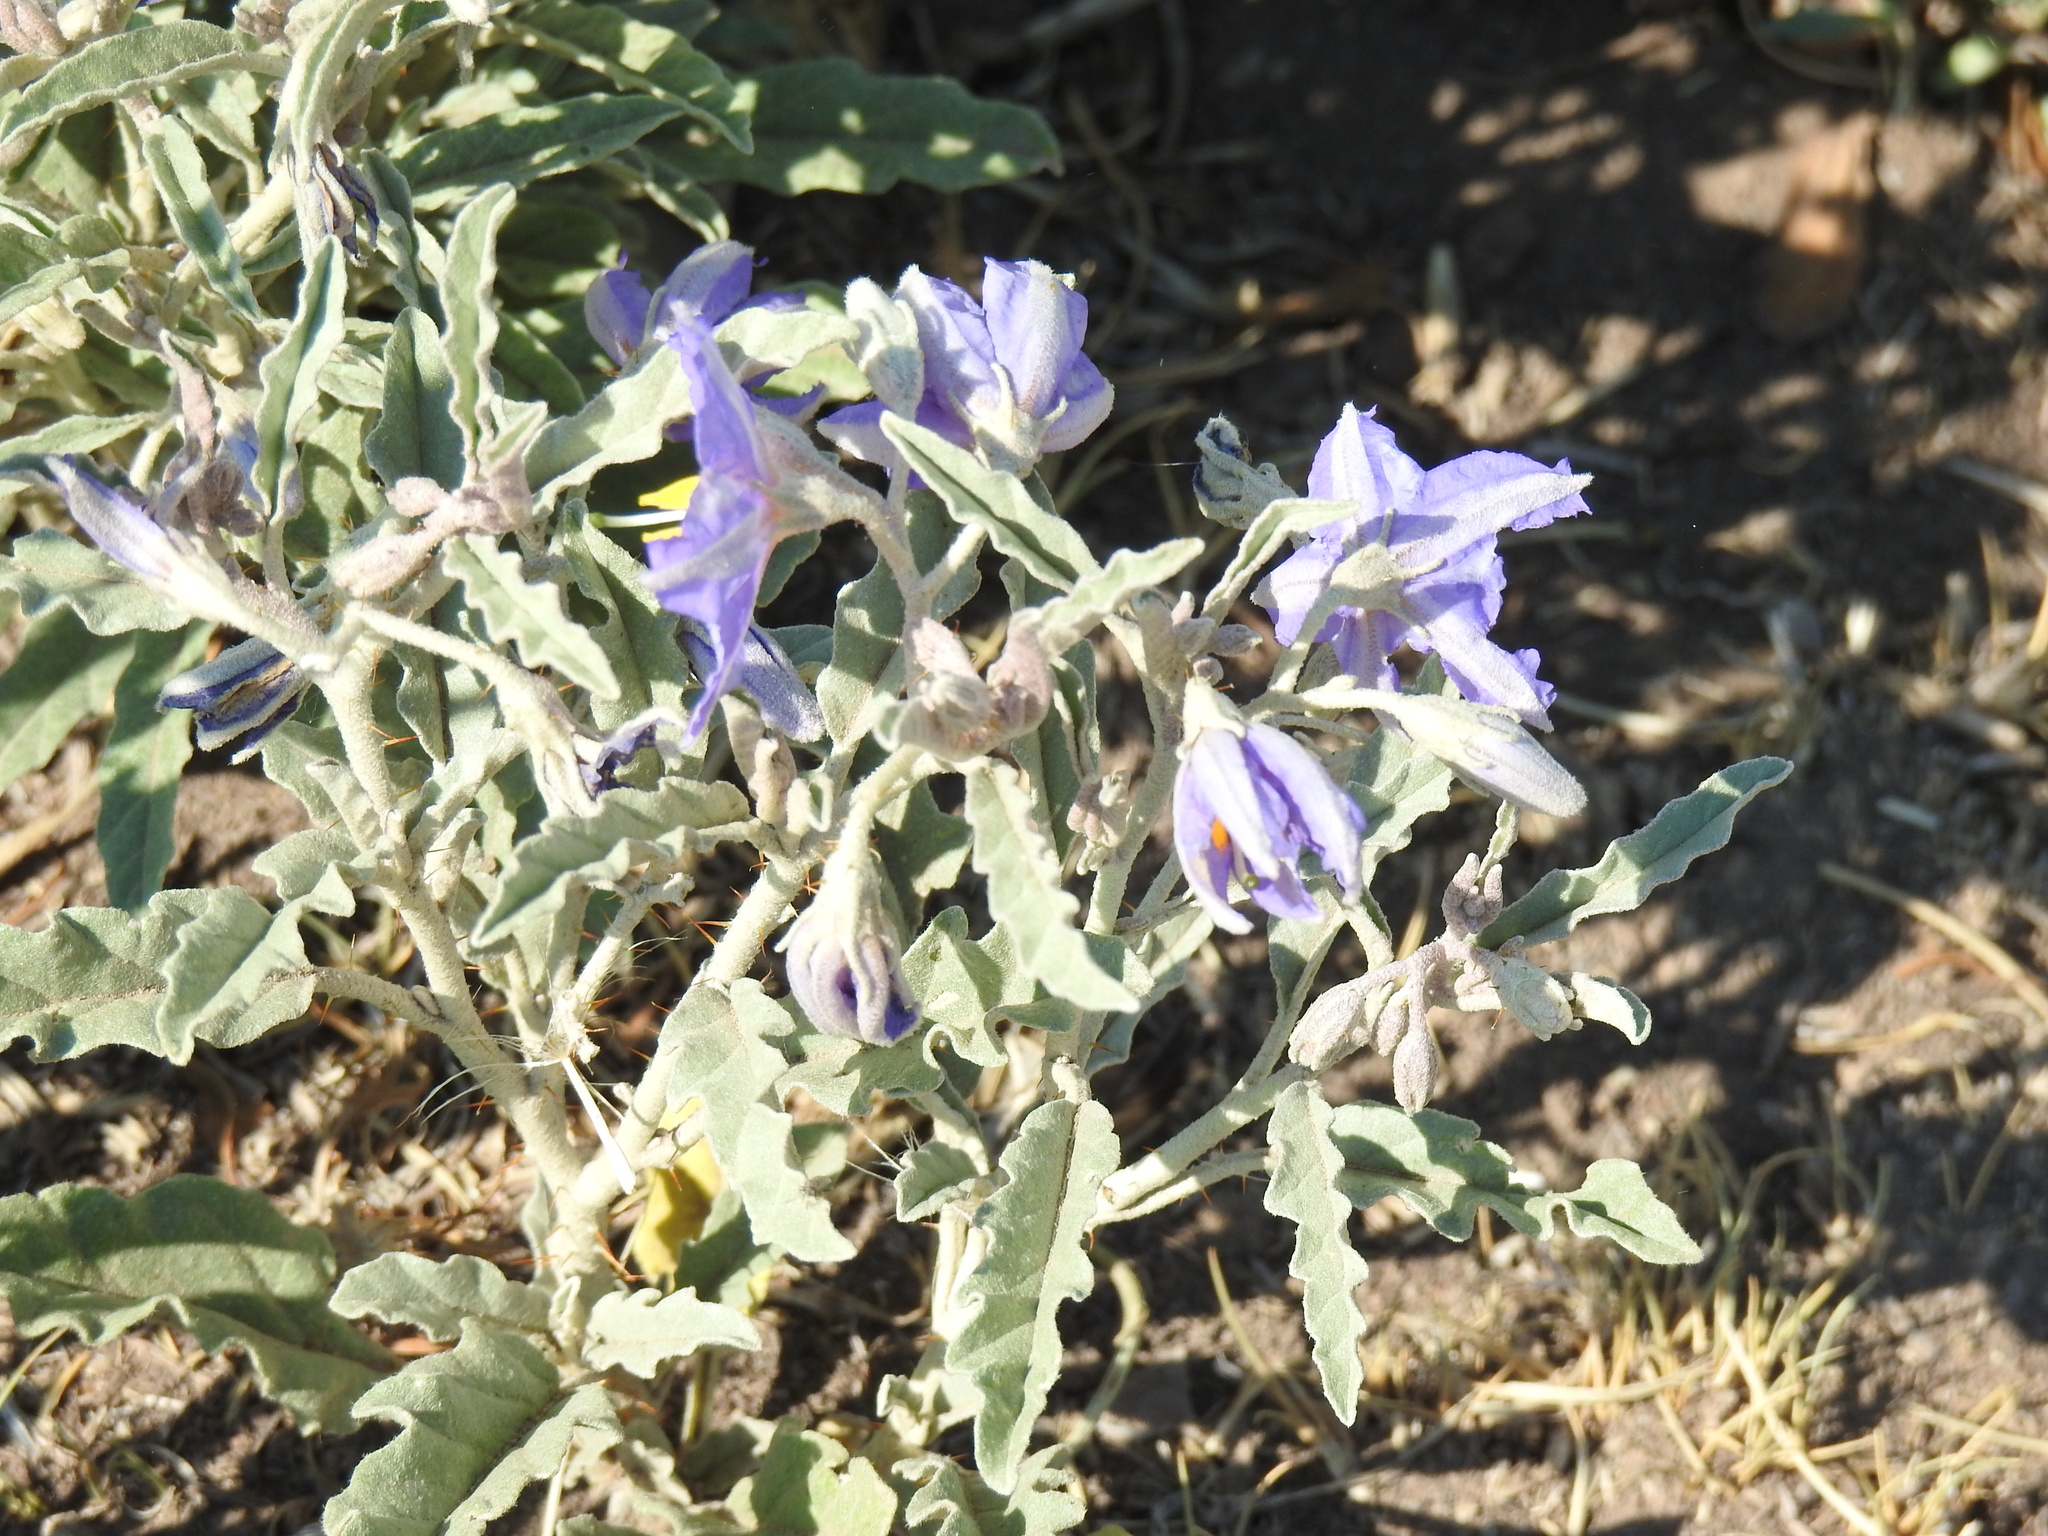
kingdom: Plantae
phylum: Tracheophyta
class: Magnoliopsida
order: Solanales
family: Solanaceae
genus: Solanum
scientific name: Solanum elaeagnifolium
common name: Silverleaf nightshade
